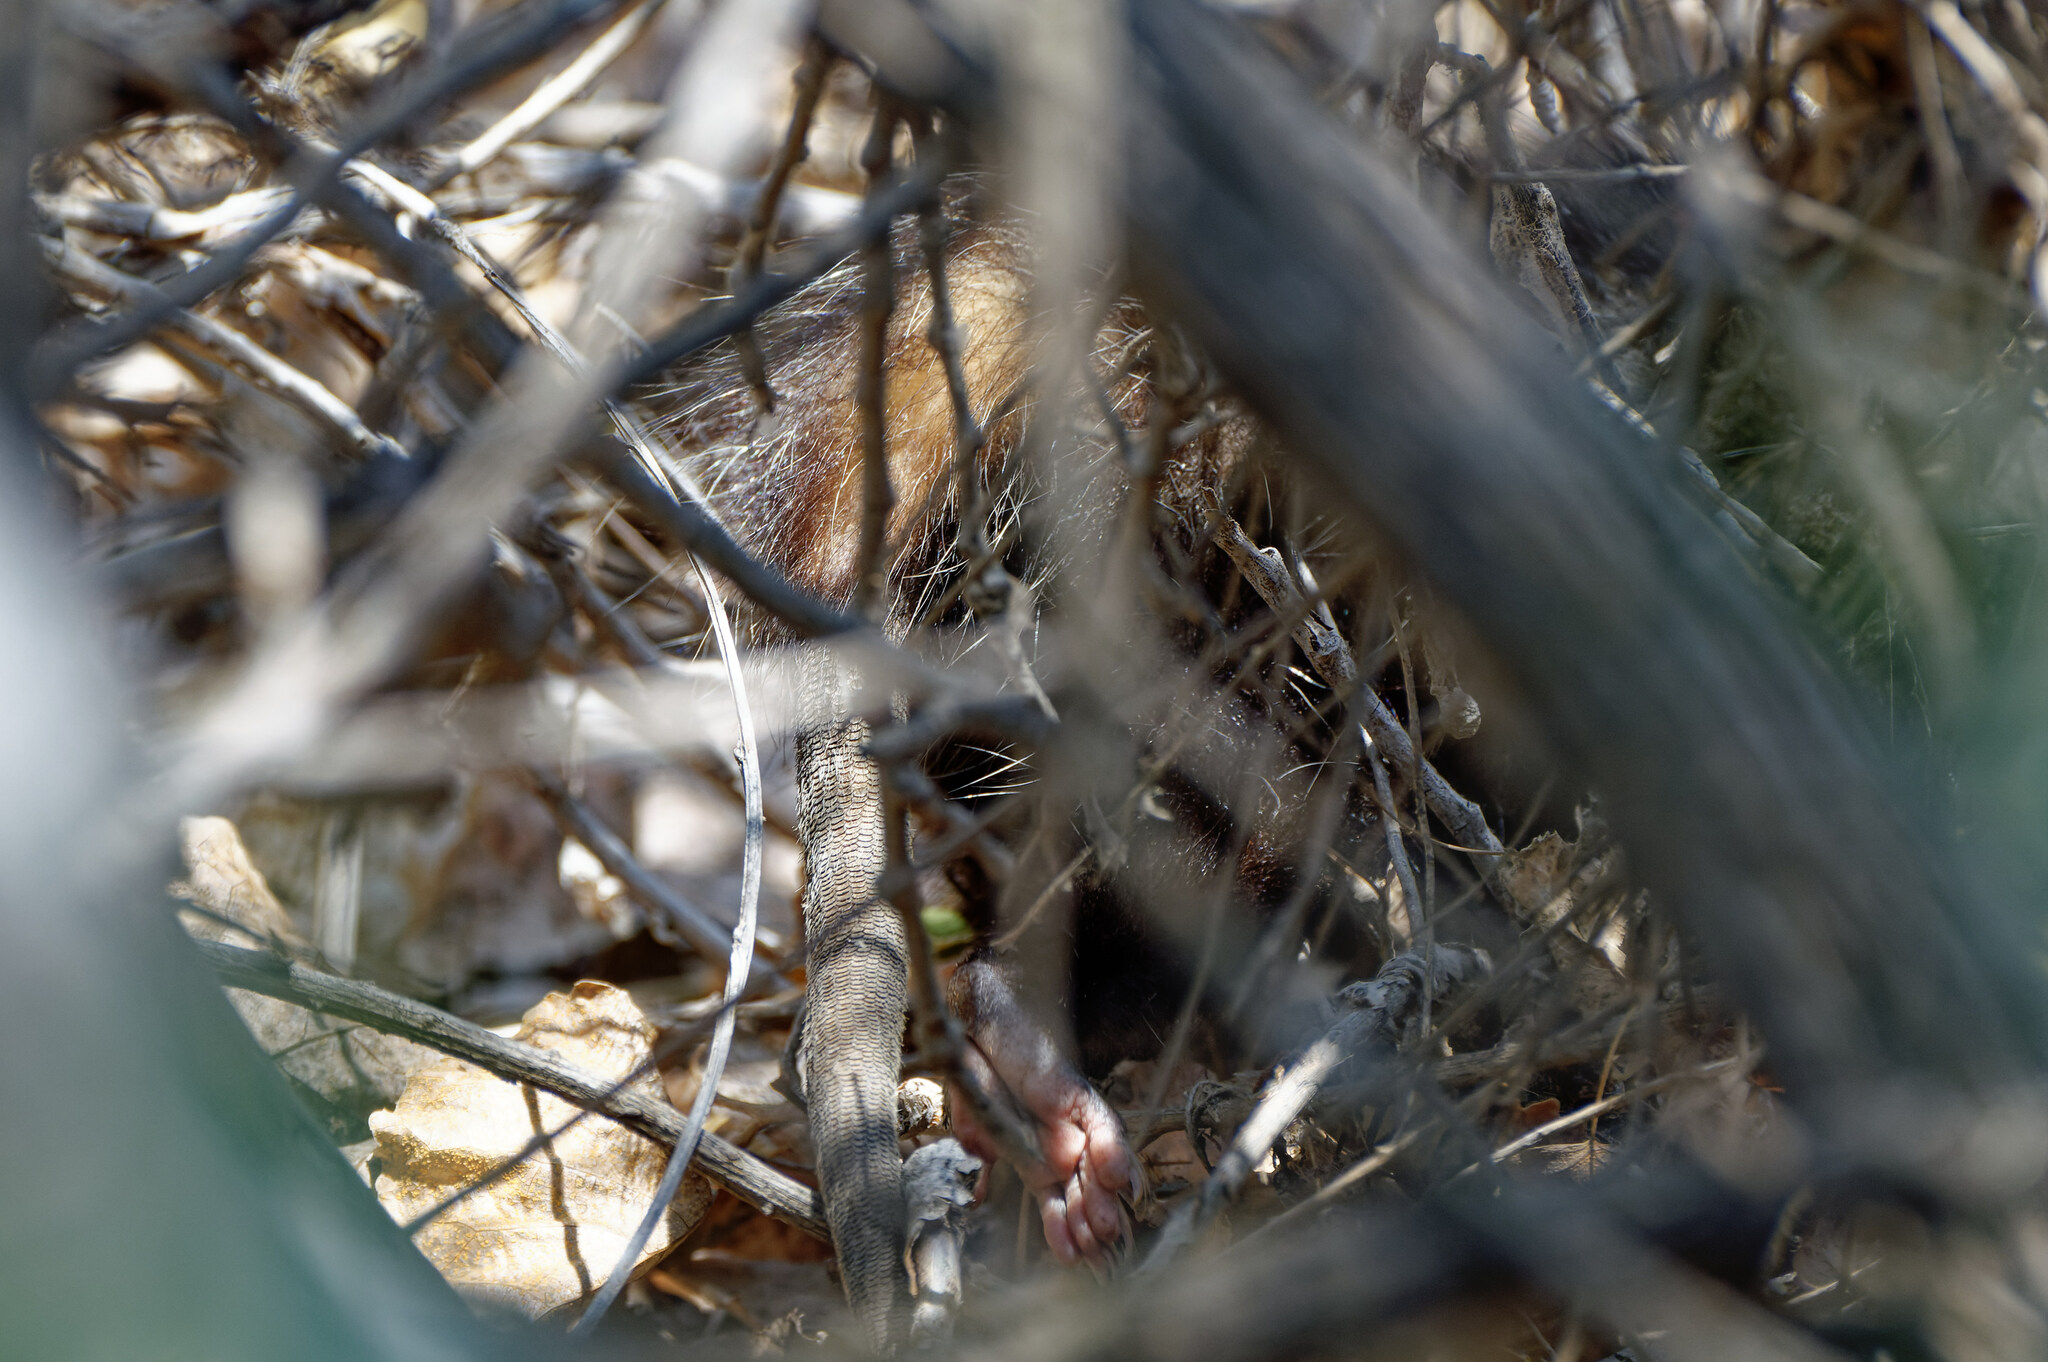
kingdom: Animalia
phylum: Chordata
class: Mammalia
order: Didelphimorphia
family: Didelphidae
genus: Didelphis
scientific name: Didelphis virginiana
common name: Virginia opossum
